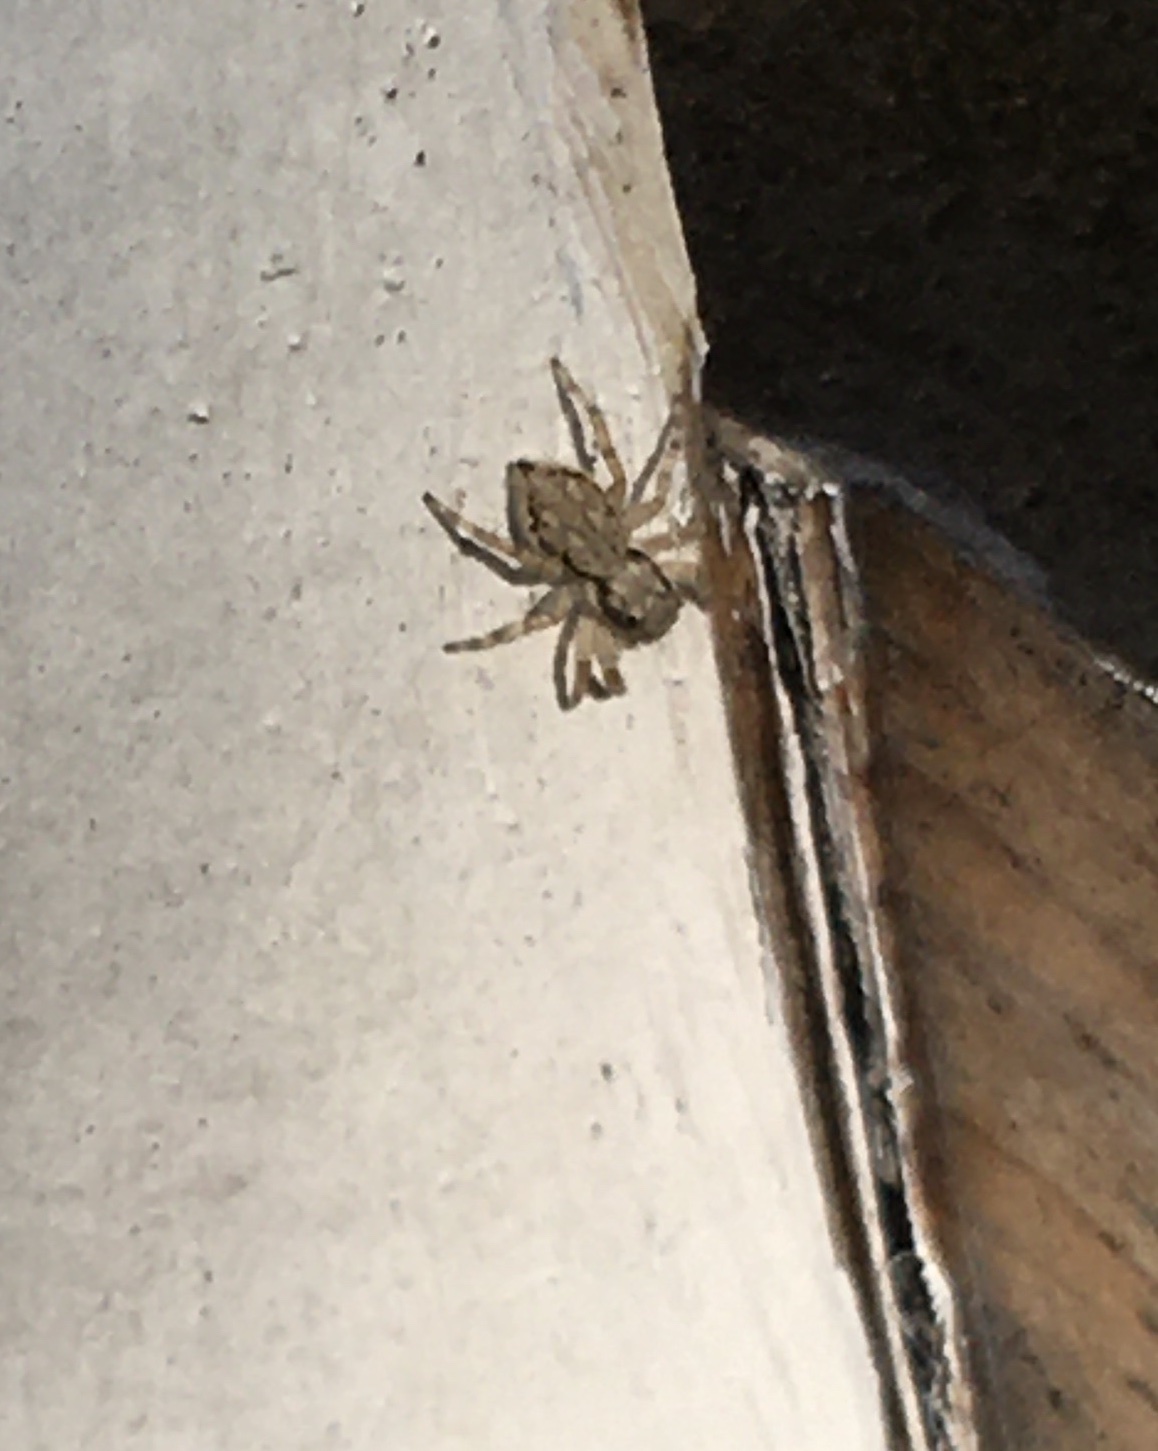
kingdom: Animalia
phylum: Arthropoda
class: Arachnida
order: Araneae
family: Salticidae
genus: Menemerus
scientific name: Menemerus bivittatus
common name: Gray wall jumper
